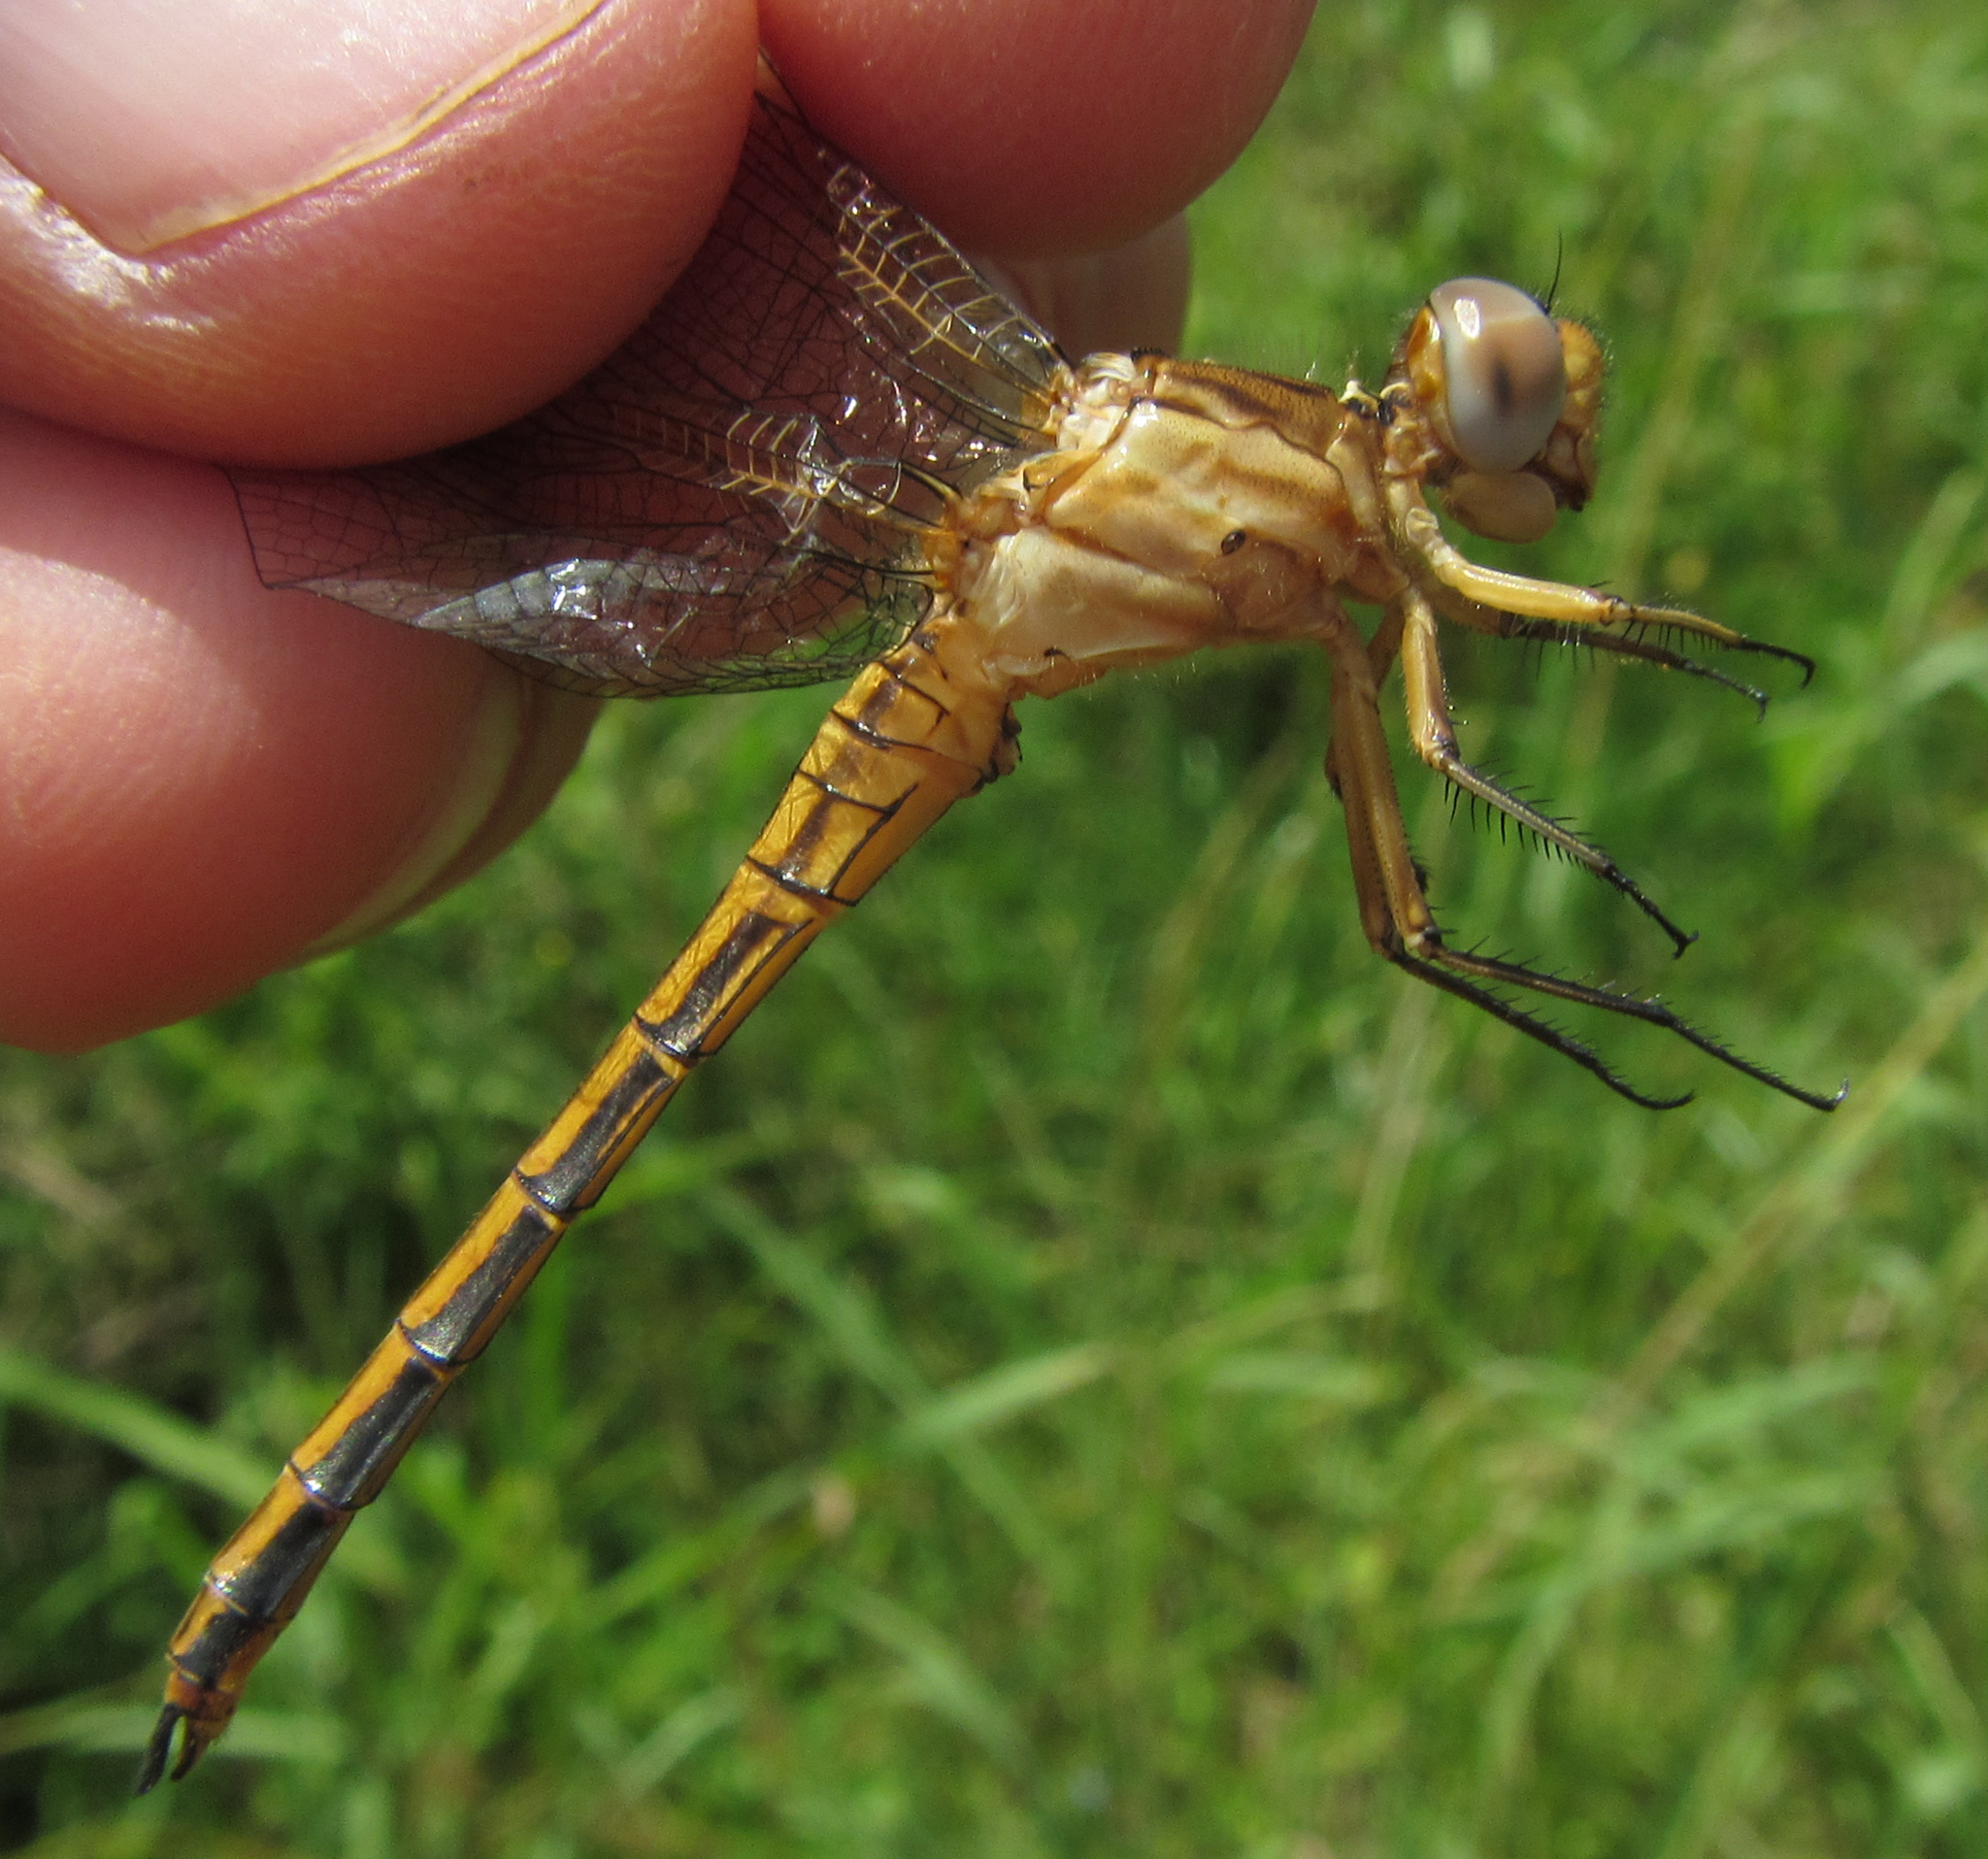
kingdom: Animalia
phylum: Arthropoda
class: Insecta
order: Odonata
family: Libellulidae
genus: Nesciothemis
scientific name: Nesciothemis farinosa
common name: Eastern blacktail
